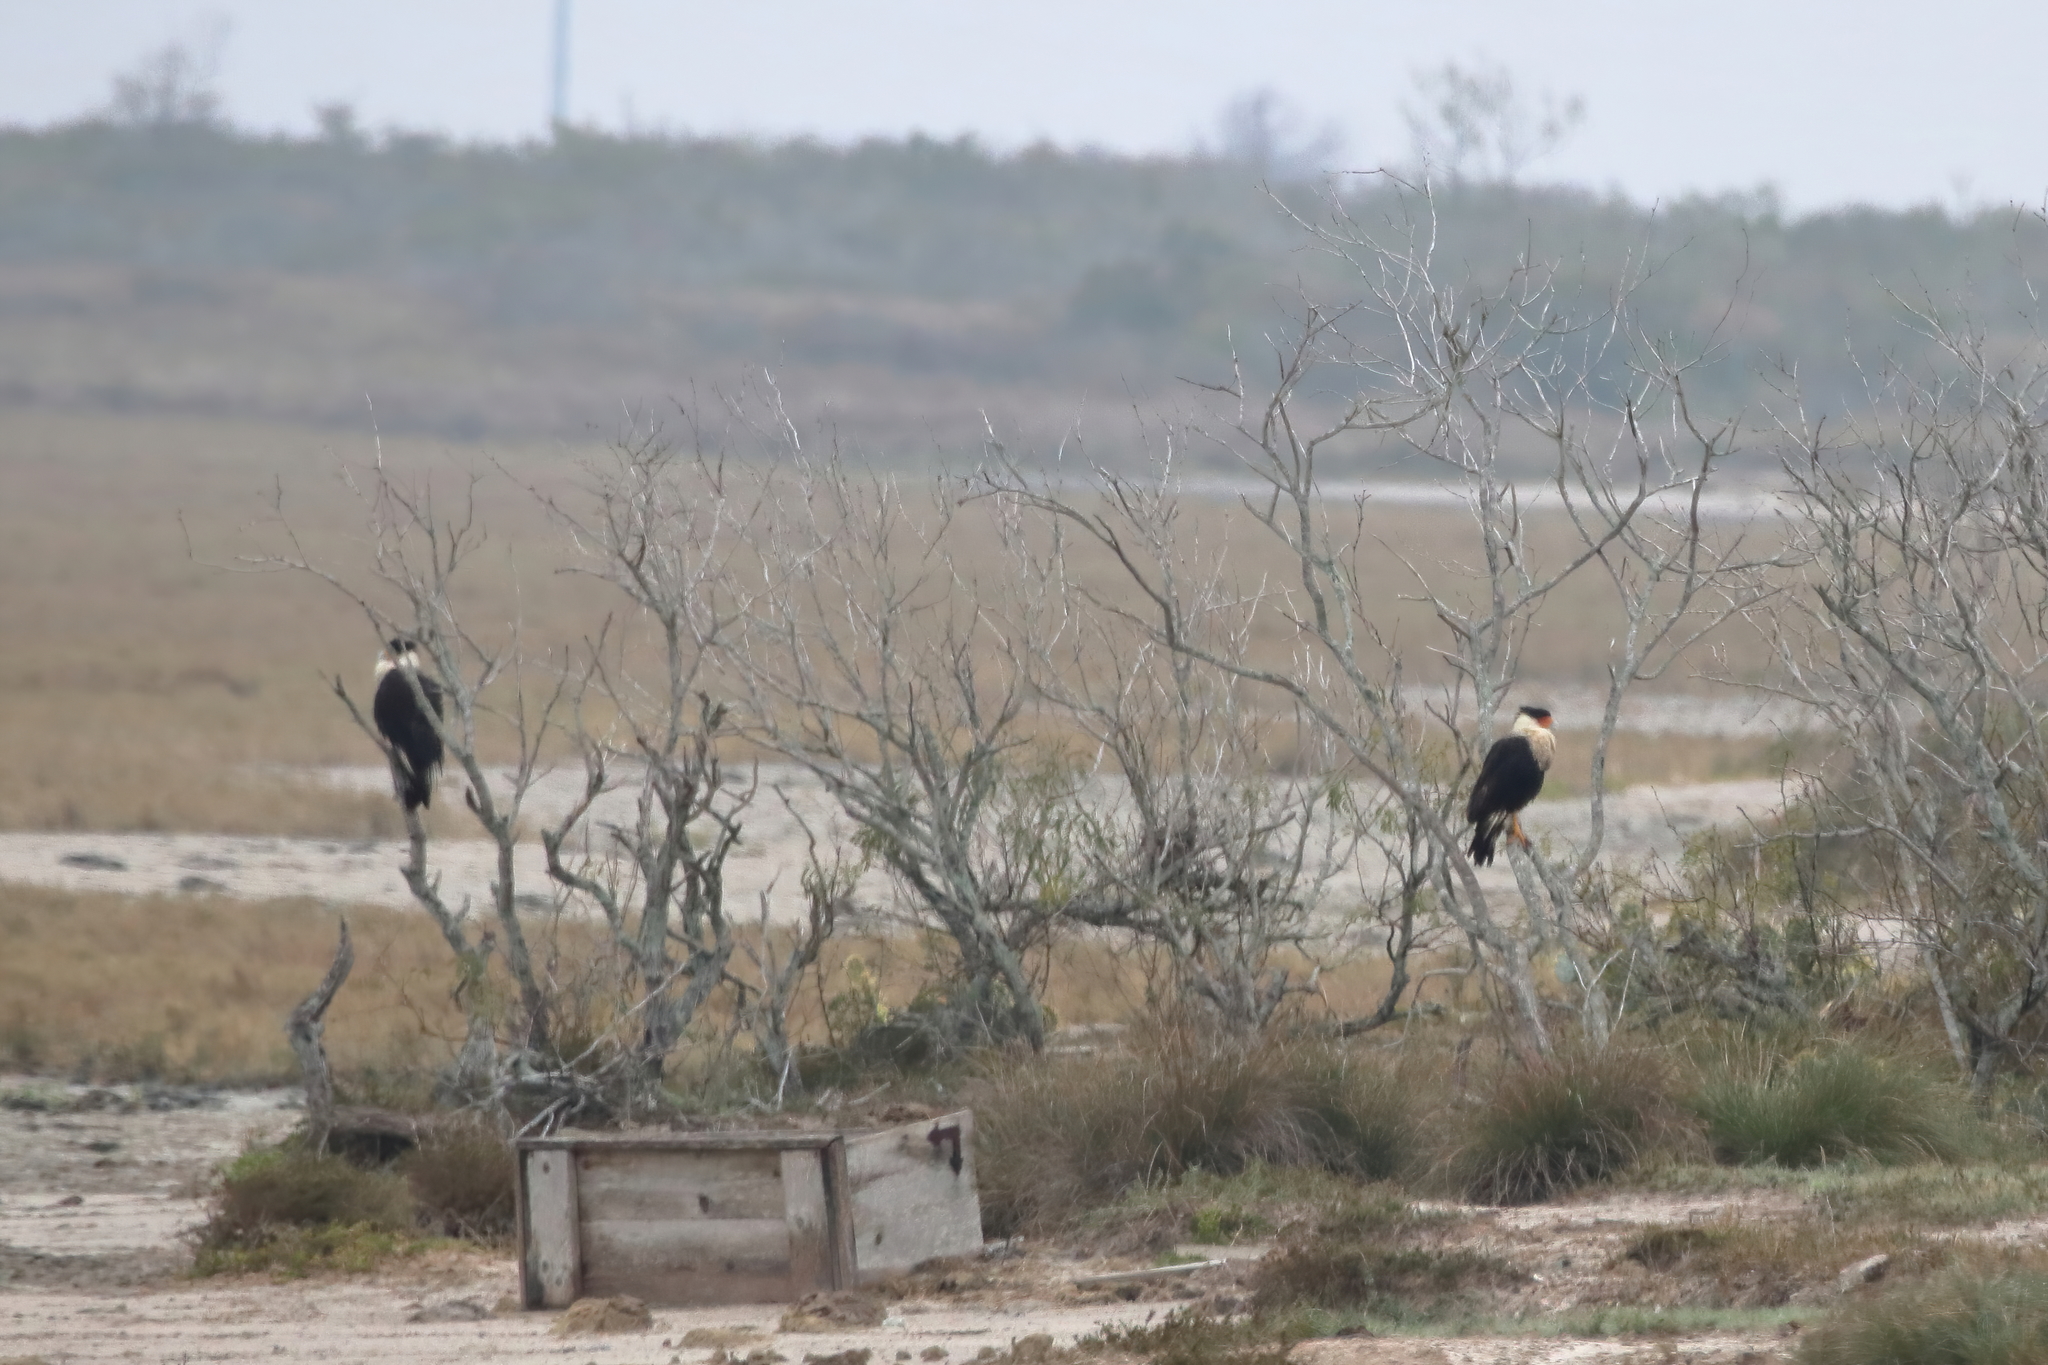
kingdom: Animalia
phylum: Chordata
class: Aves
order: Falconiformes
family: Falconidae
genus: Caracara
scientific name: Caracara plancus
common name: Southern caracara
